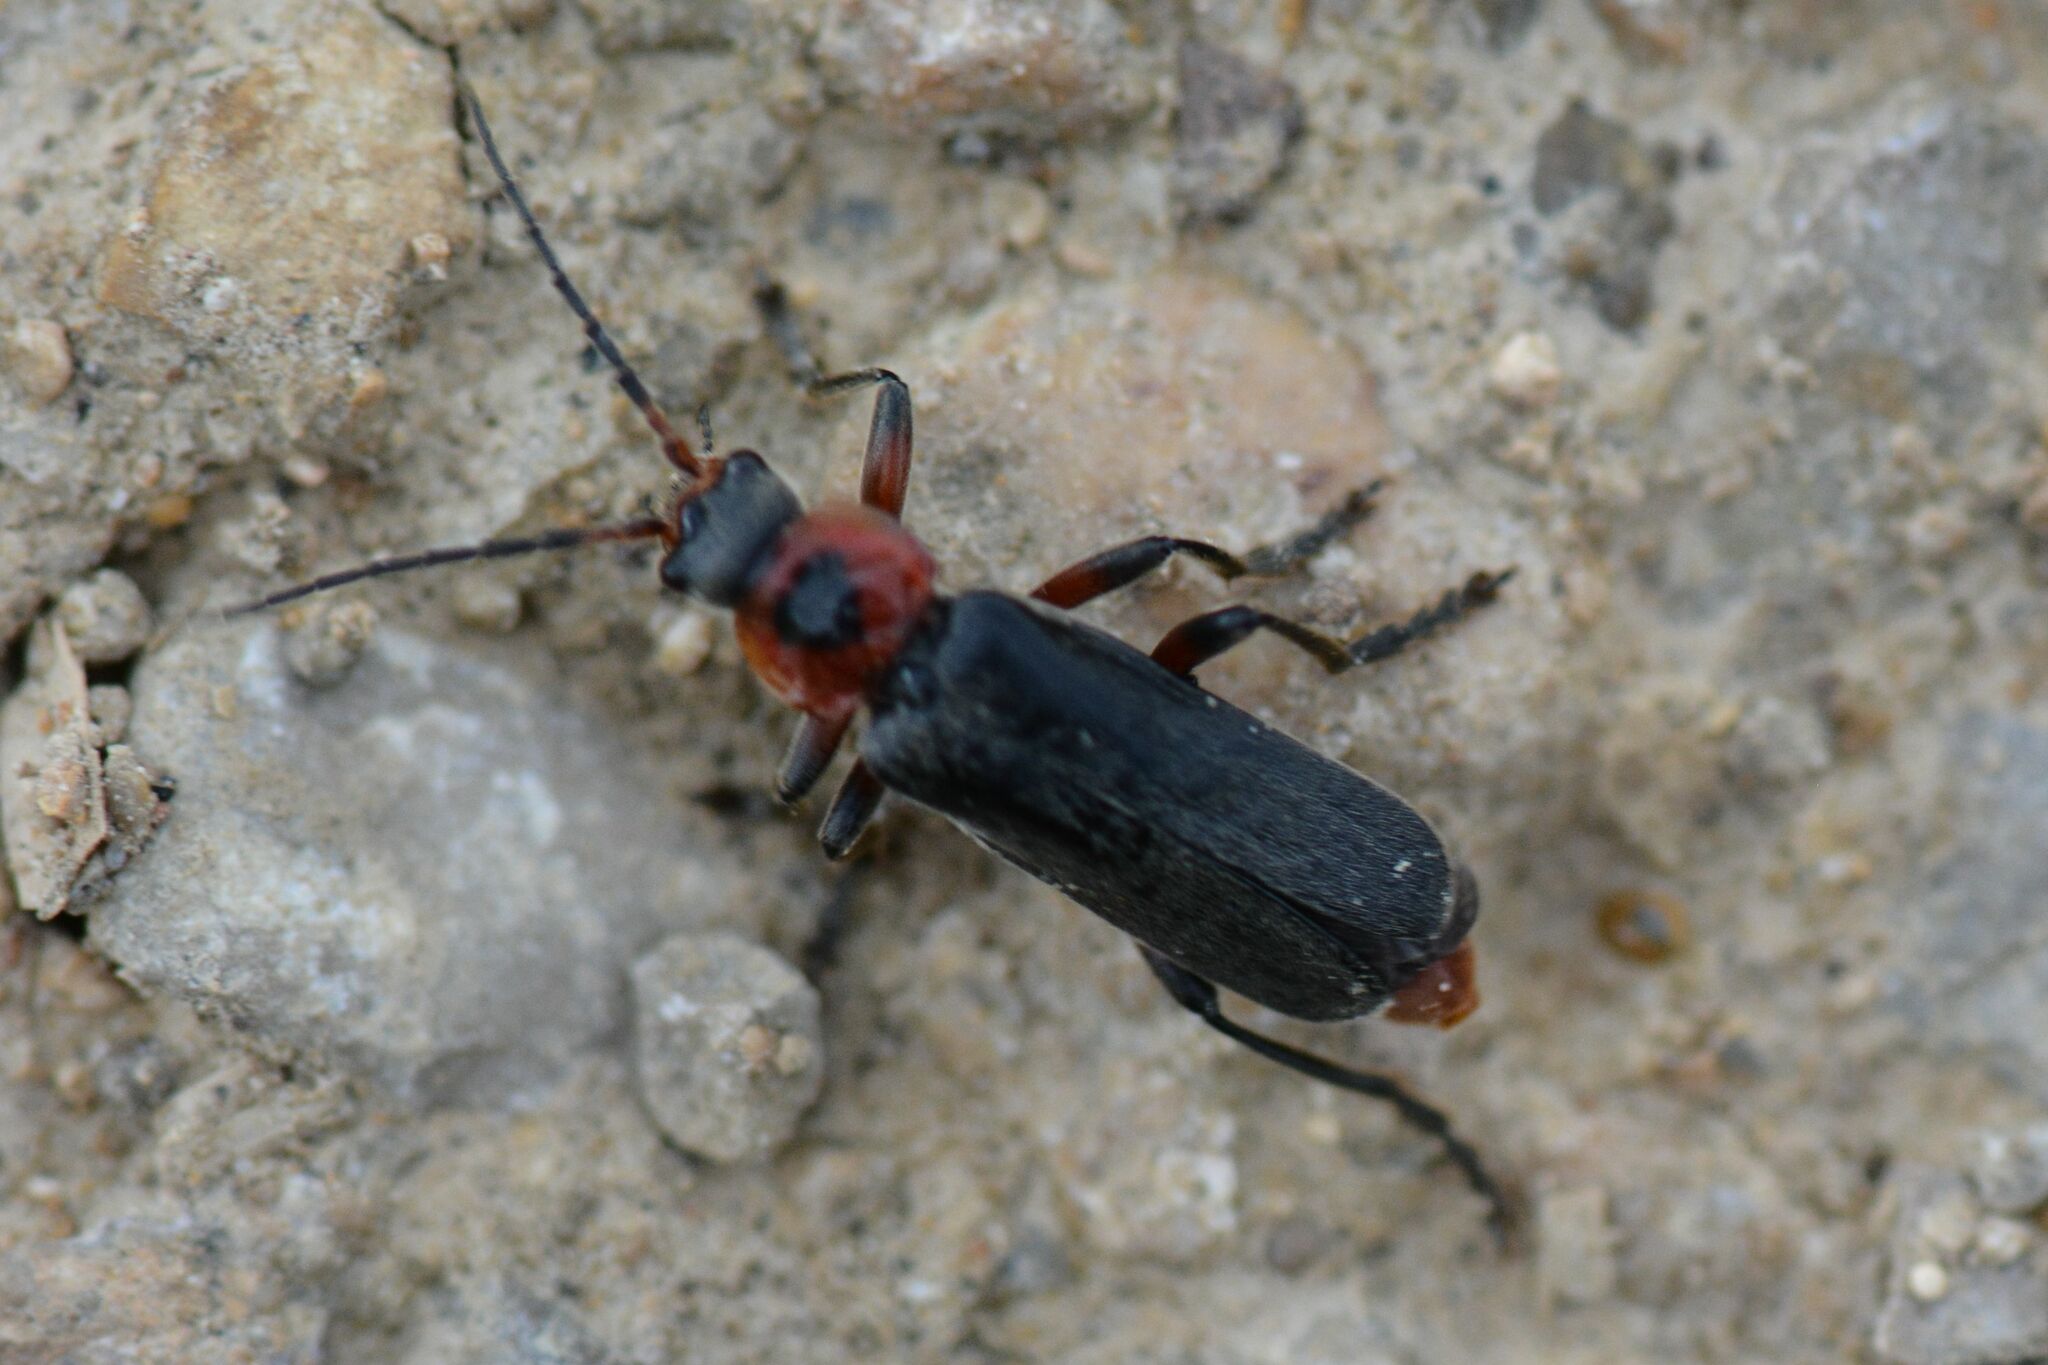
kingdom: Animalia
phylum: Arthropoda
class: Insecta
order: Coleoptera
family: Cantharidae
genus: Cantharis
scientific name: Cantharis rustica
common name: Soldier beetle
